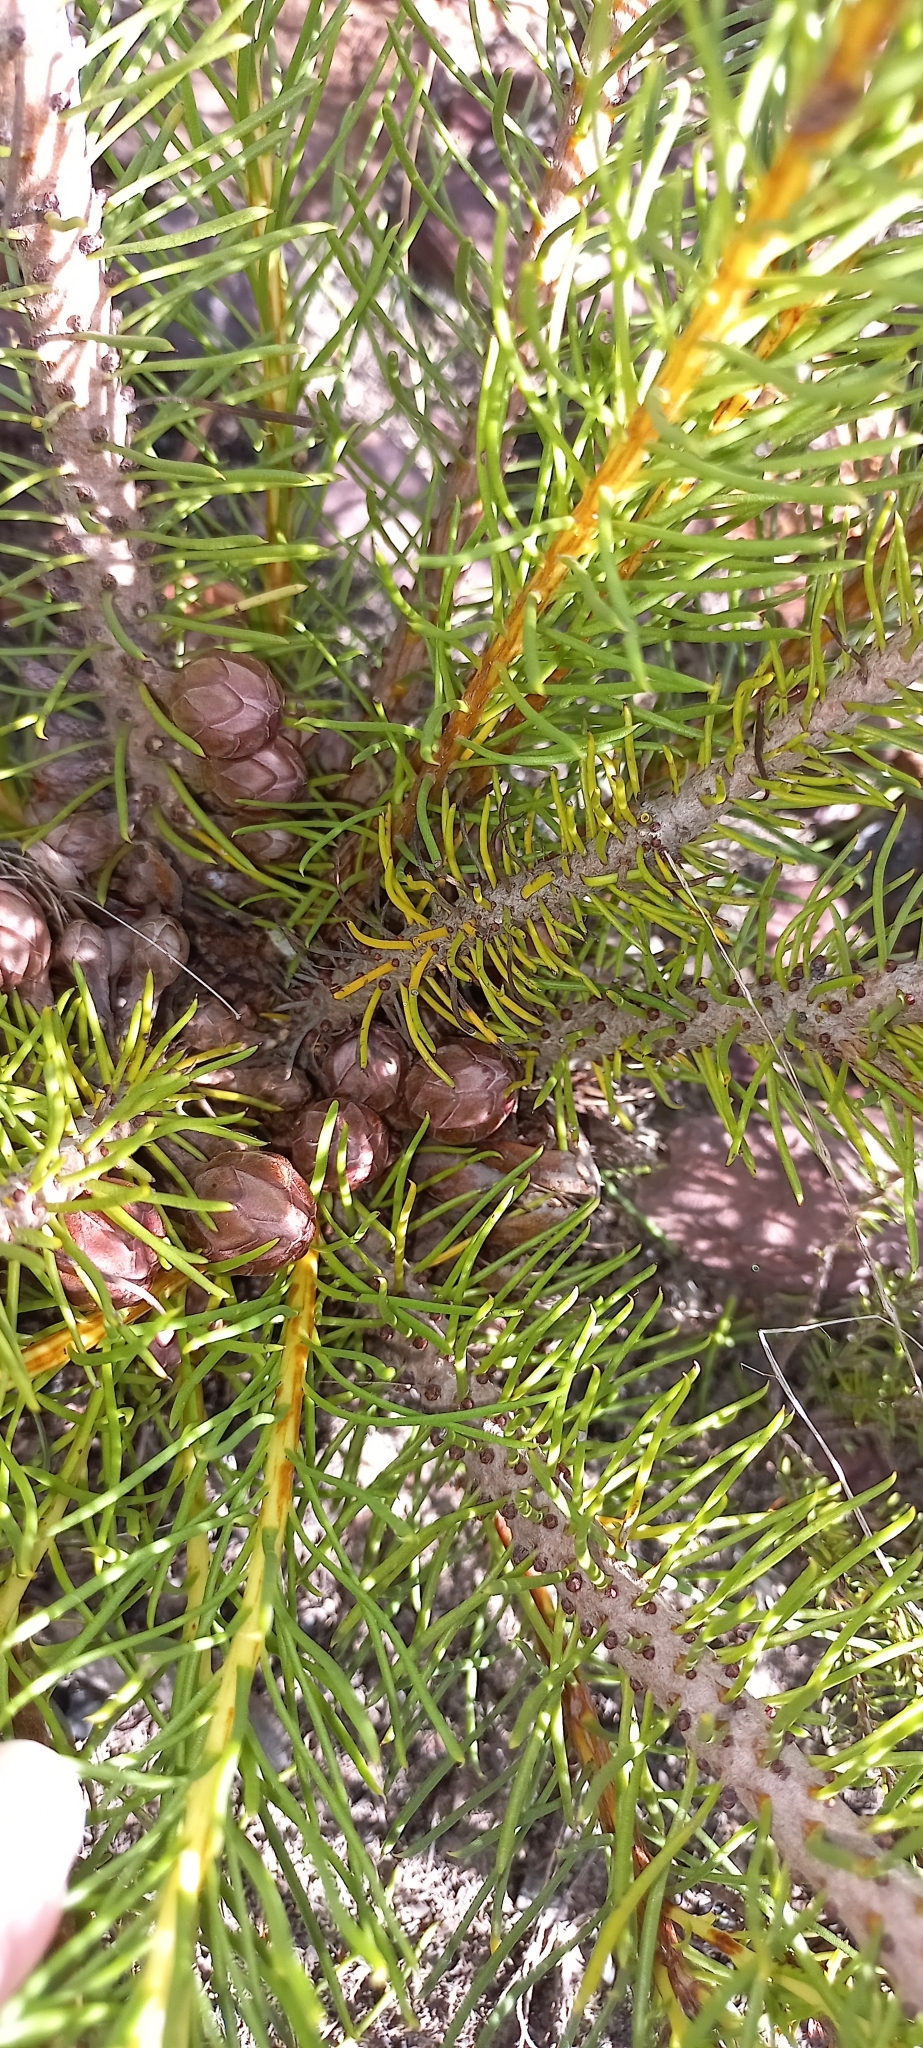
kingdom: Plantae
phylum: Tracheophyta
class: Magnoliopsida
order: Proteales
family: Proteaceae
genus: Protea
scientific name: Protea subulifolia
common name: Awl-leaf sugarbush
